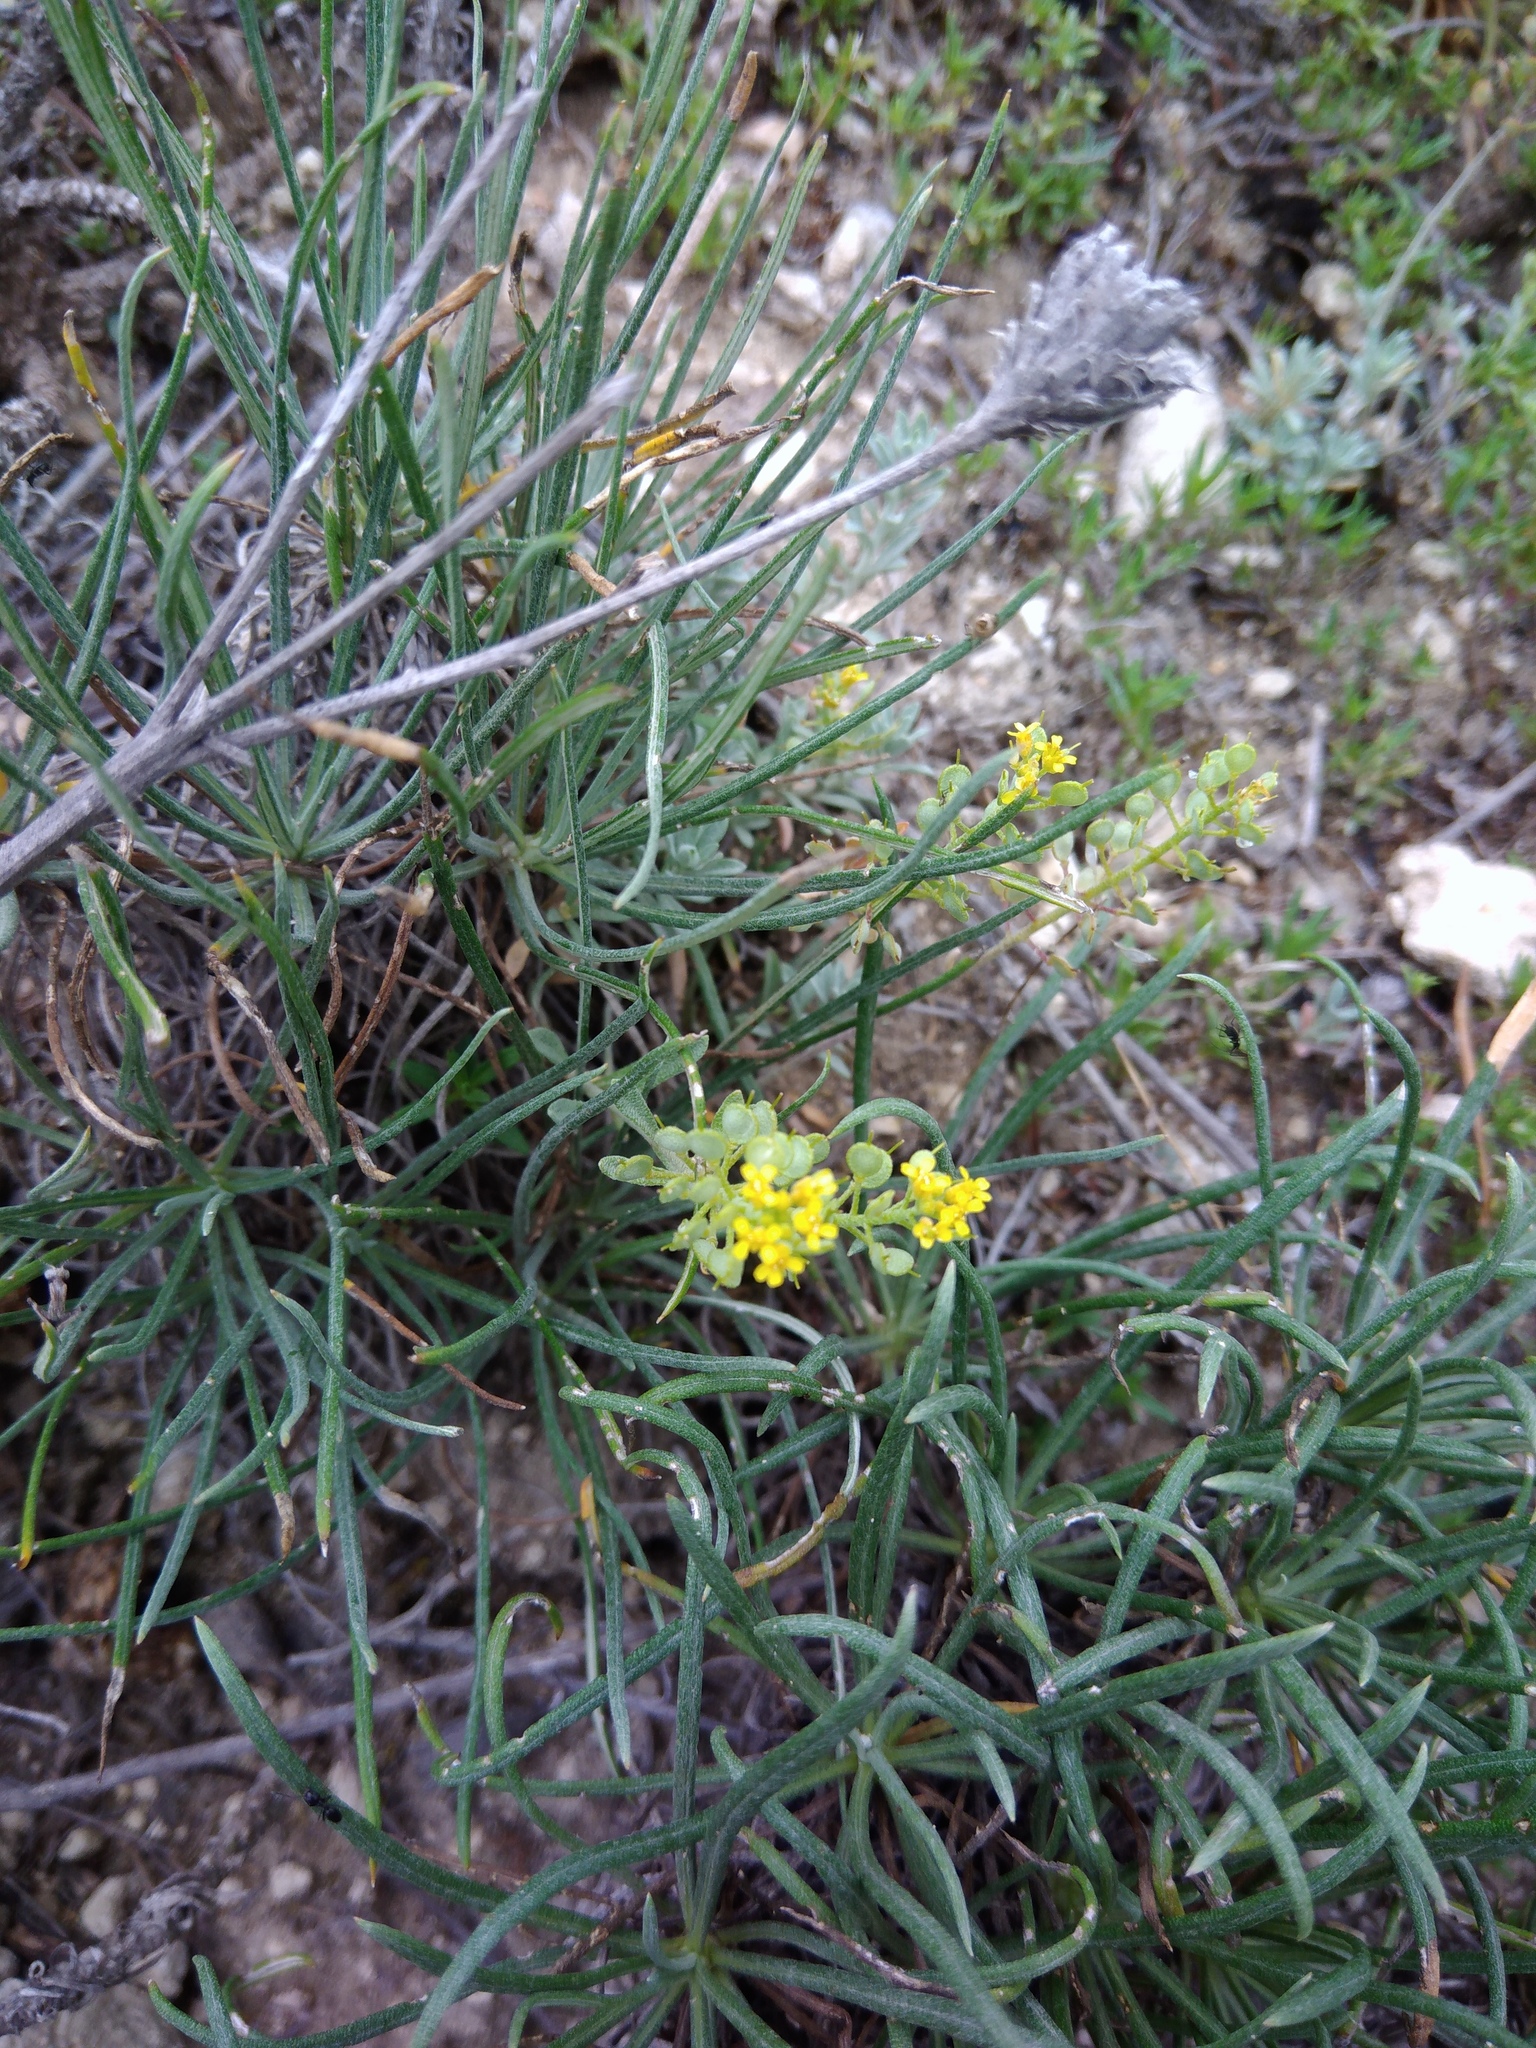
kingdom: Plantae
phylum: Tracheophyta
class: Magnoliopsida
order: Brassicales
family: Brassicaceae
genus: Aurinia
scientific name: Aurinia saxatilis
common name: Golden-tuft alyssum
